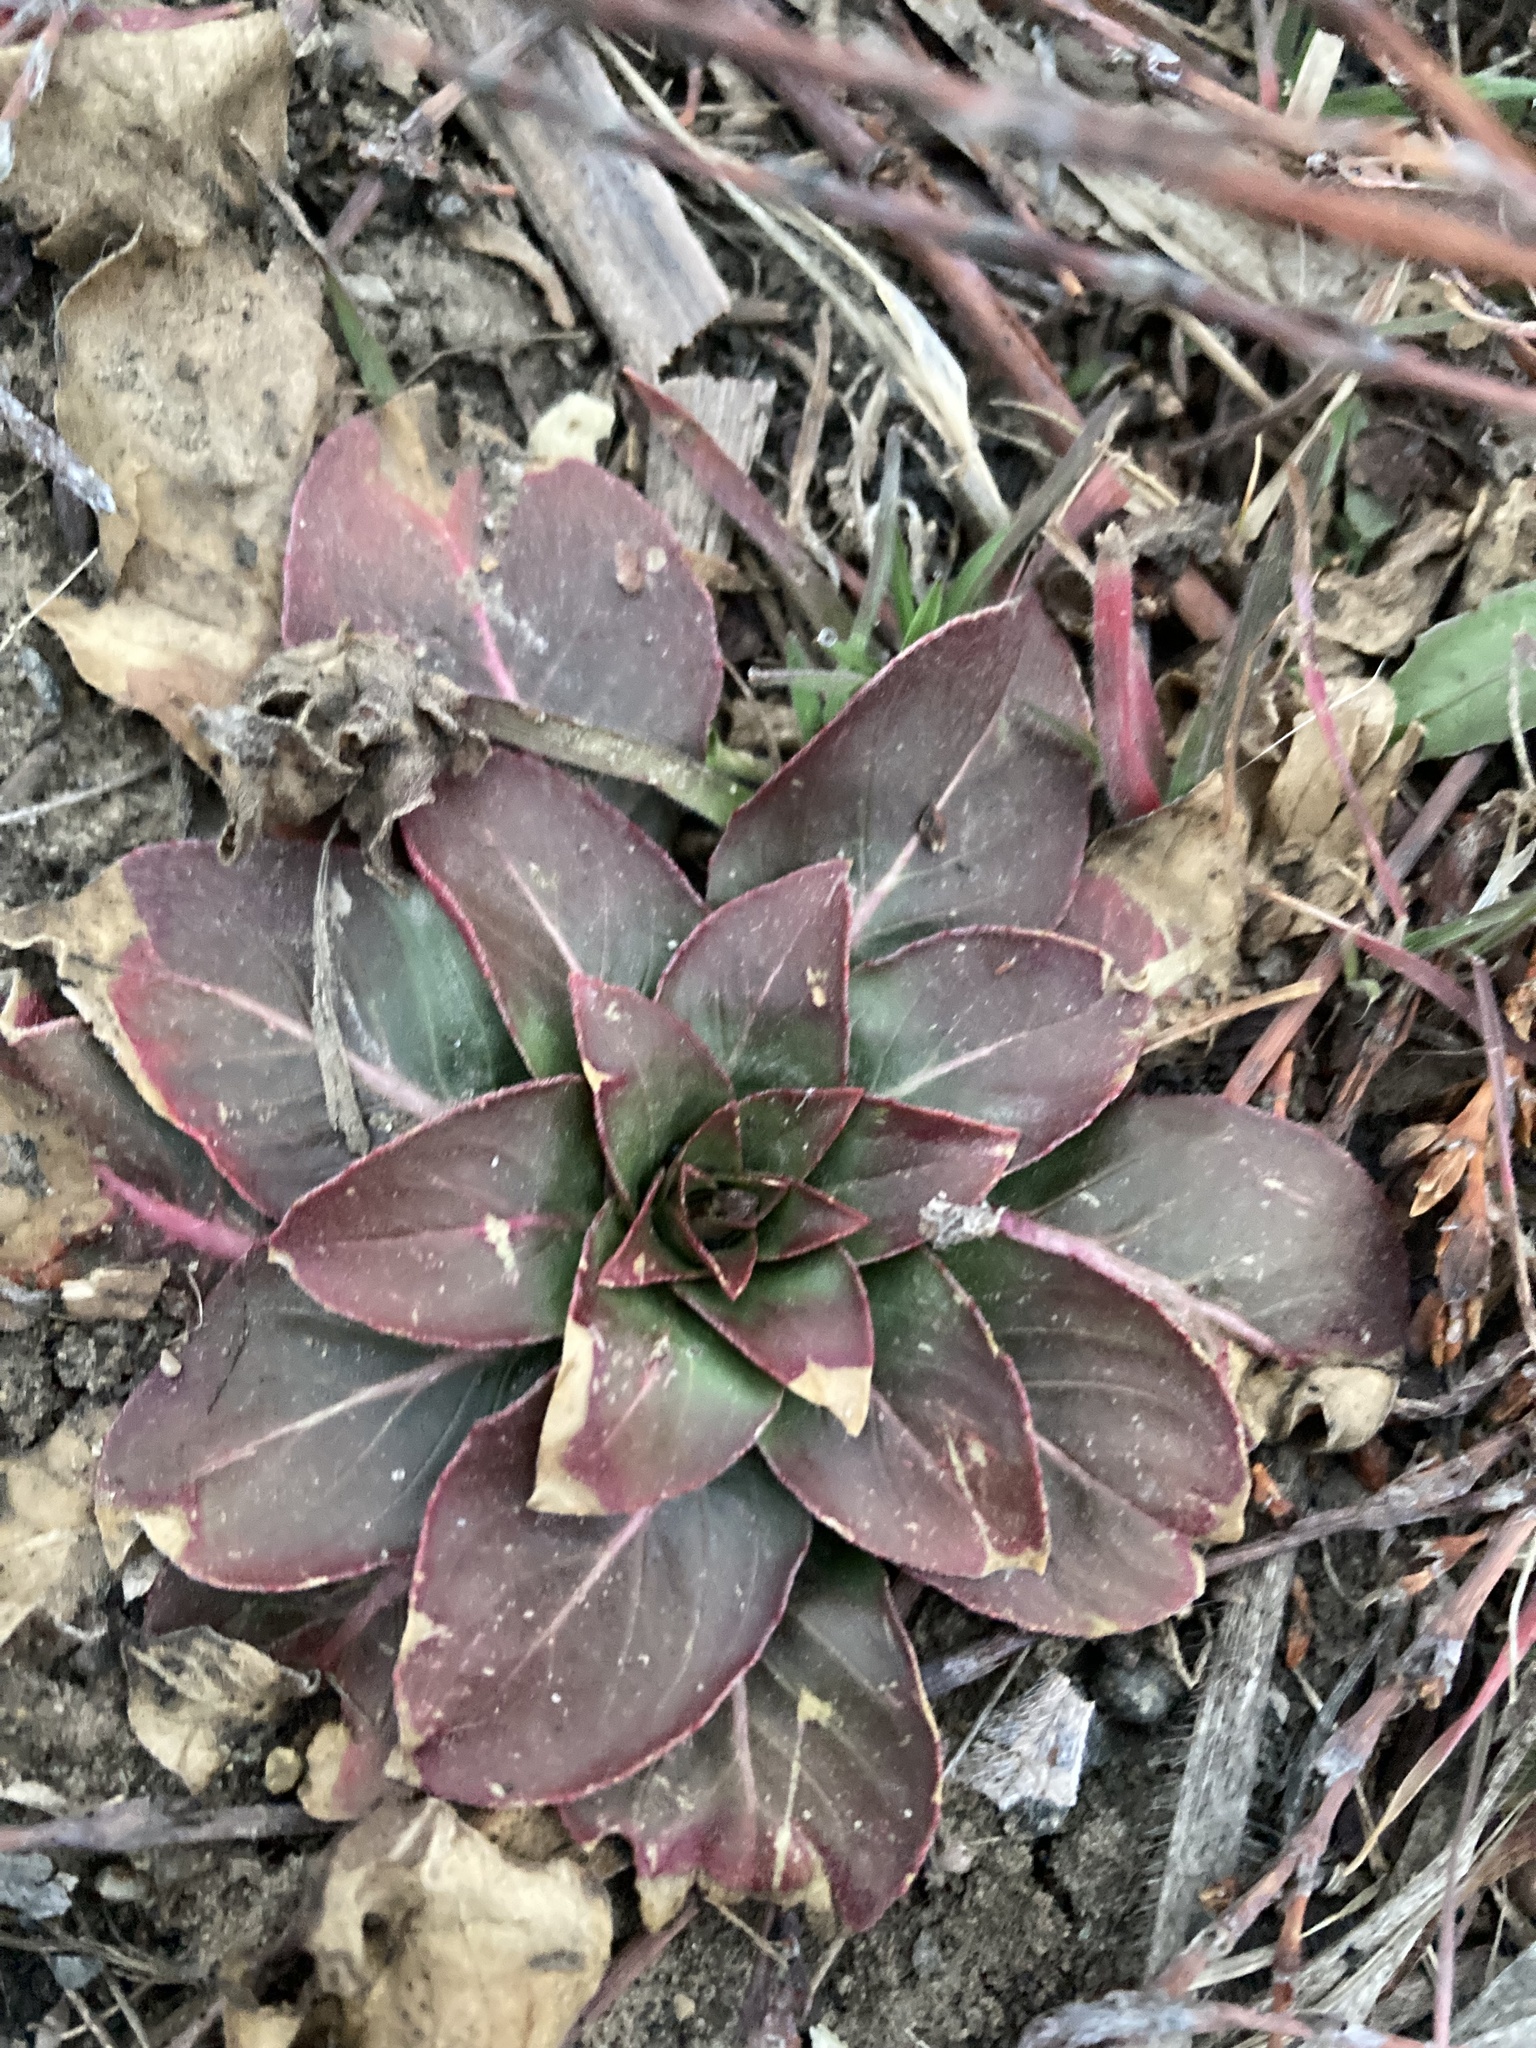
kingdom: Plantae
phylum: Tracheophyta
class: Magnoliopsida
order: Myrtales
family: Onagraceae
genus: Oenothera
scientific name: Oenothera biennis
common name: Common evening-primrose
